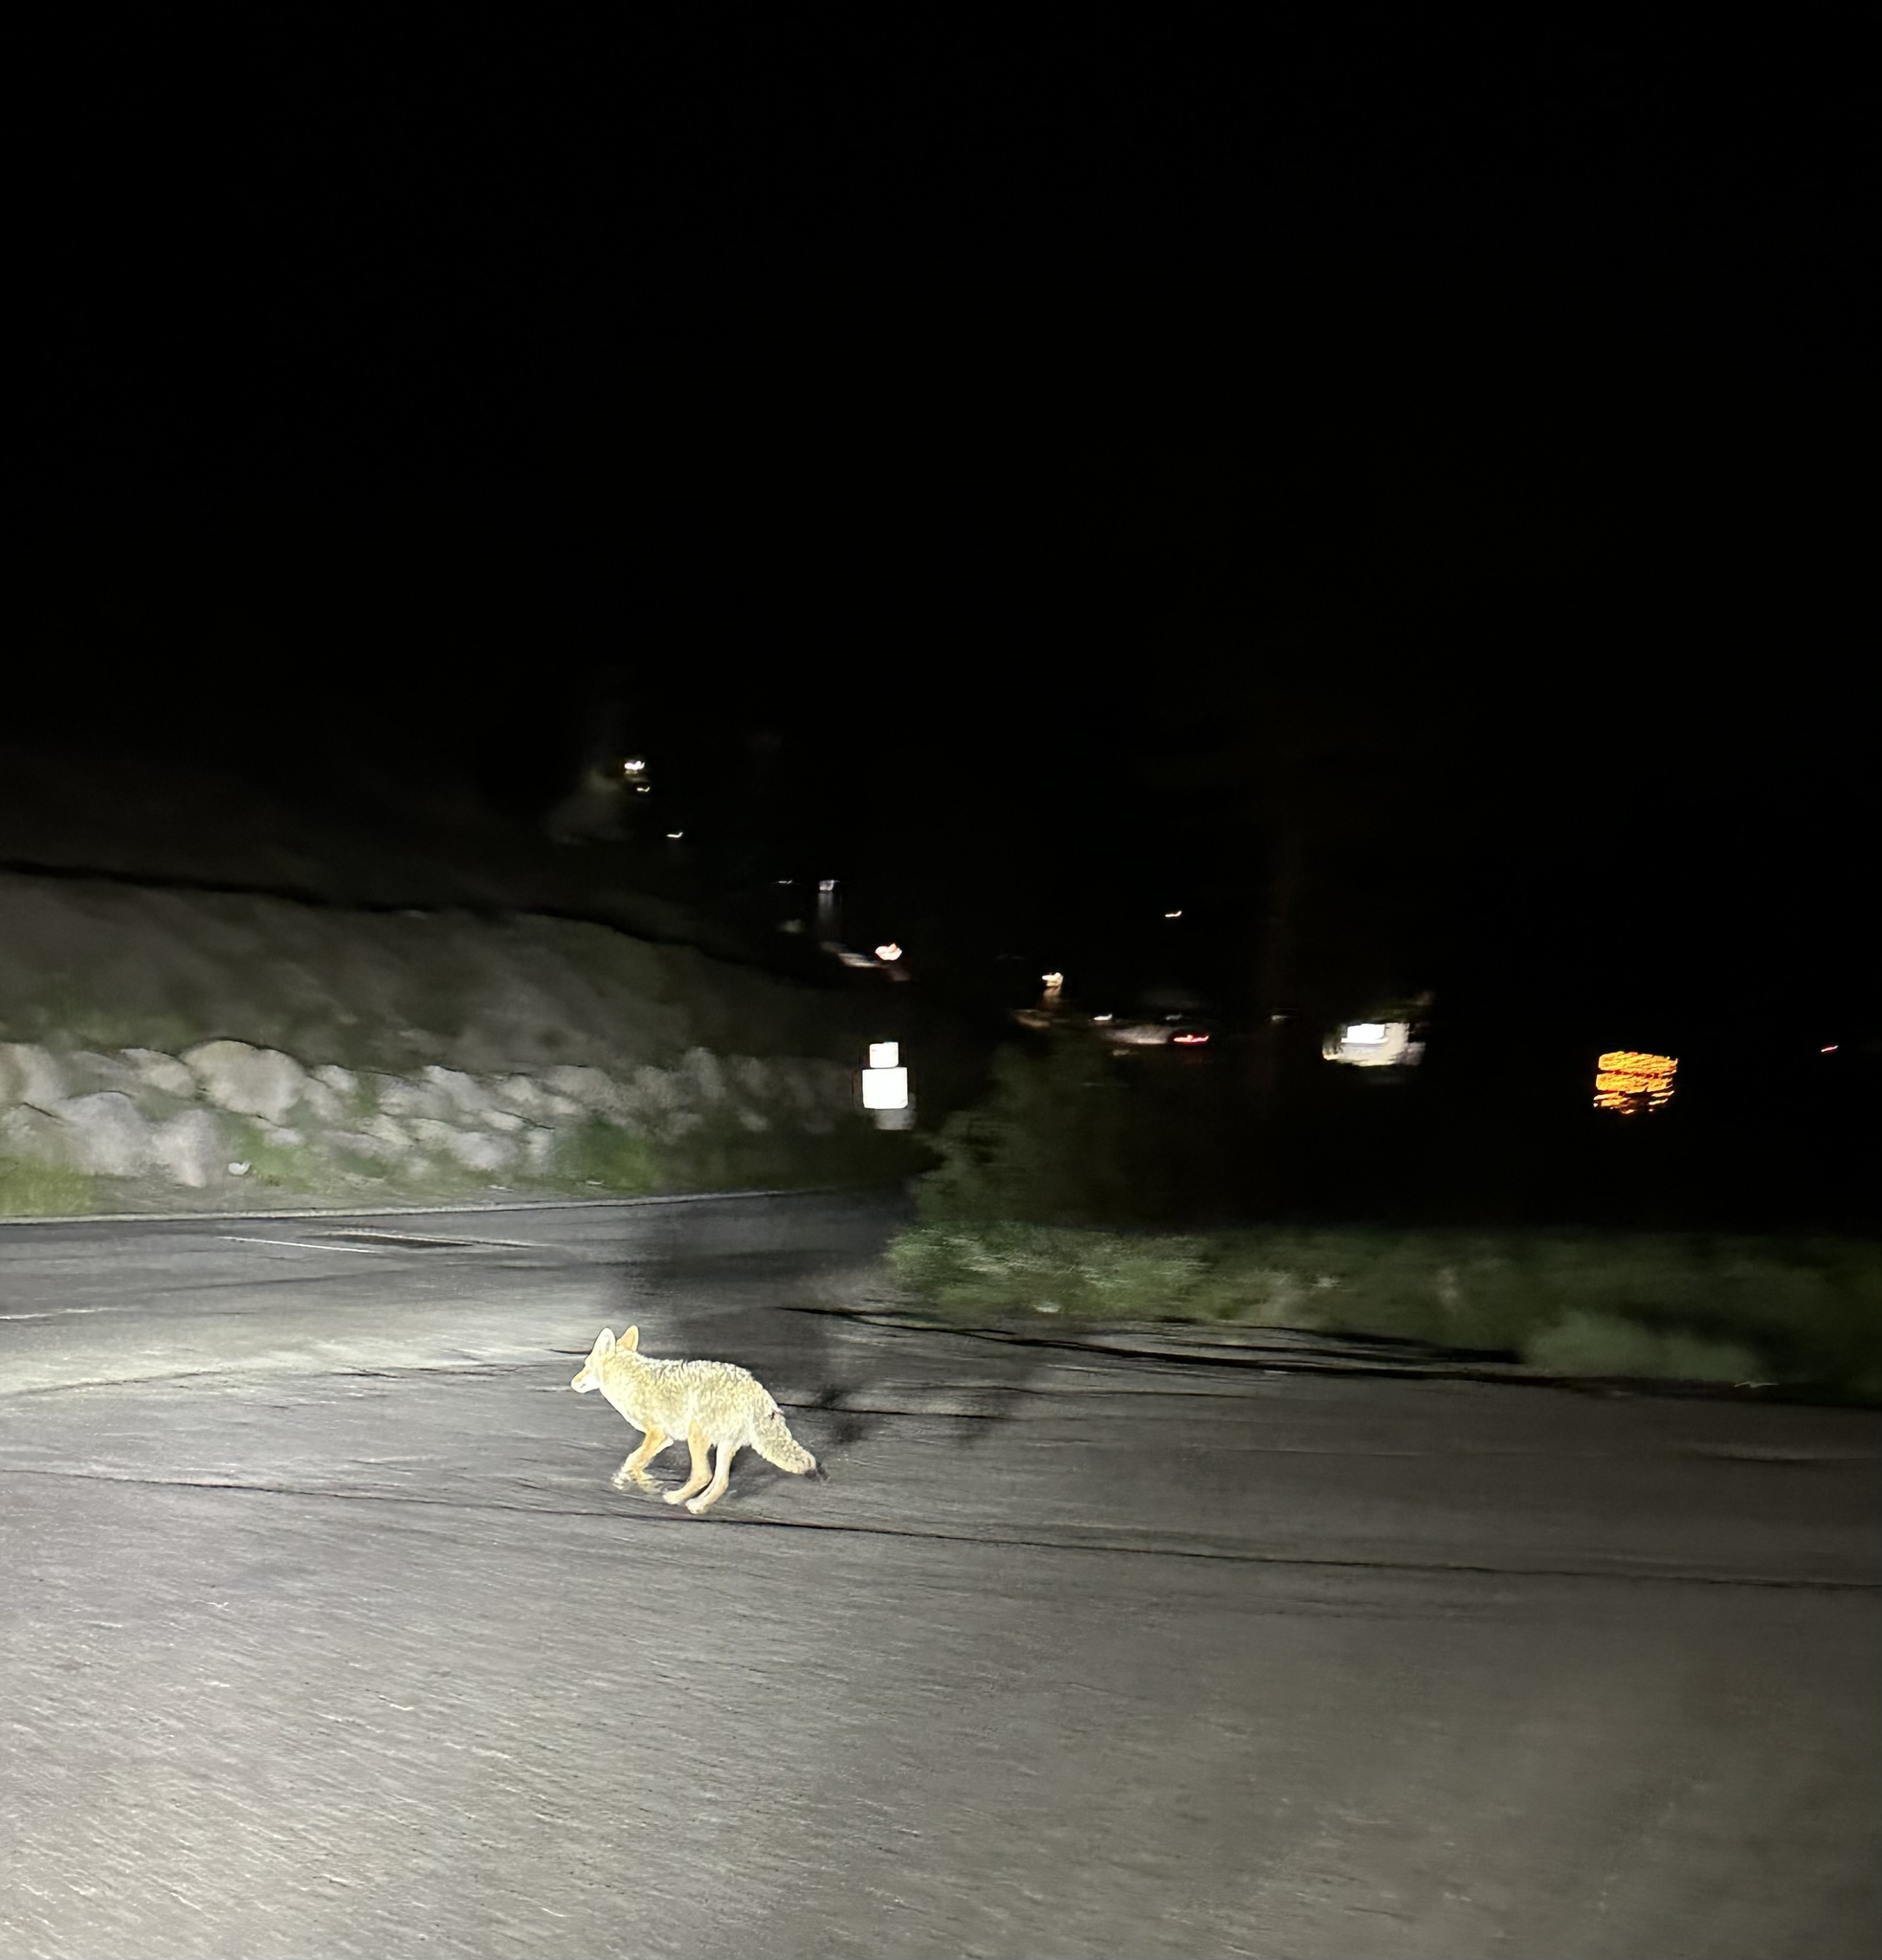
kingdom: Animalia
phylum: Chordata
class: Mammalia
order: Carnivora
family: Canidae
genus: Canis
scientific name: Canis latrans
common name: Coyote
